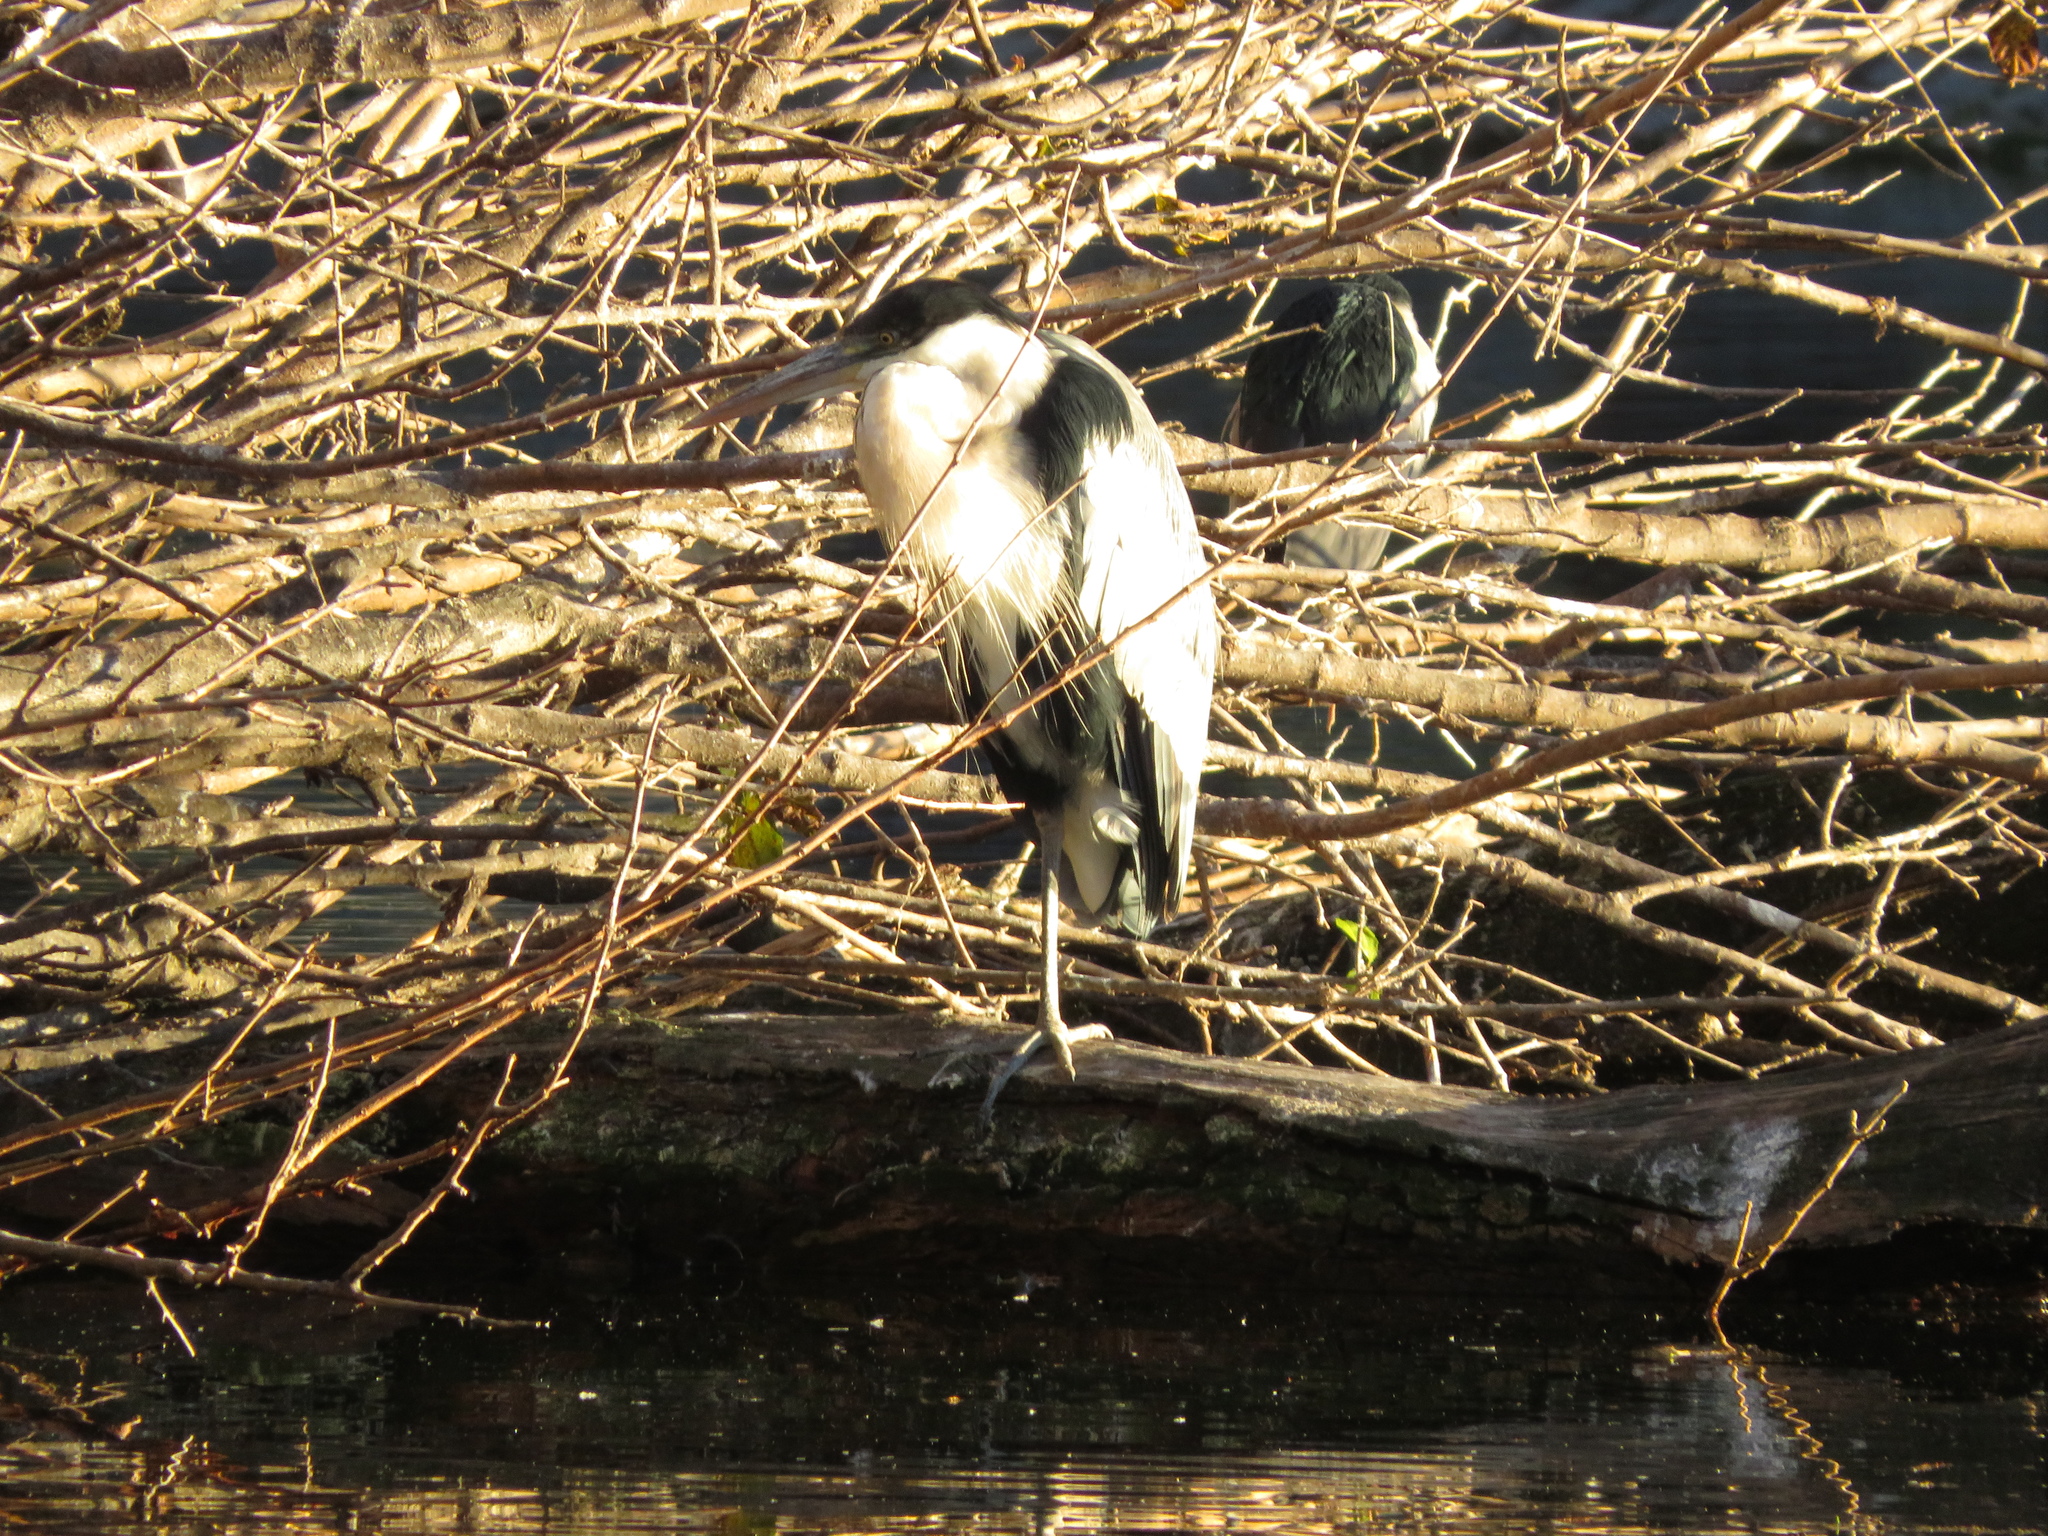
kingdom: Animalia
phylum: Chordata
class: Aves
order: Pelecaniformes
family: Ardeidae
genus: Ardea
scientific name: Ardea cocoi
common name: Cocoi heron
